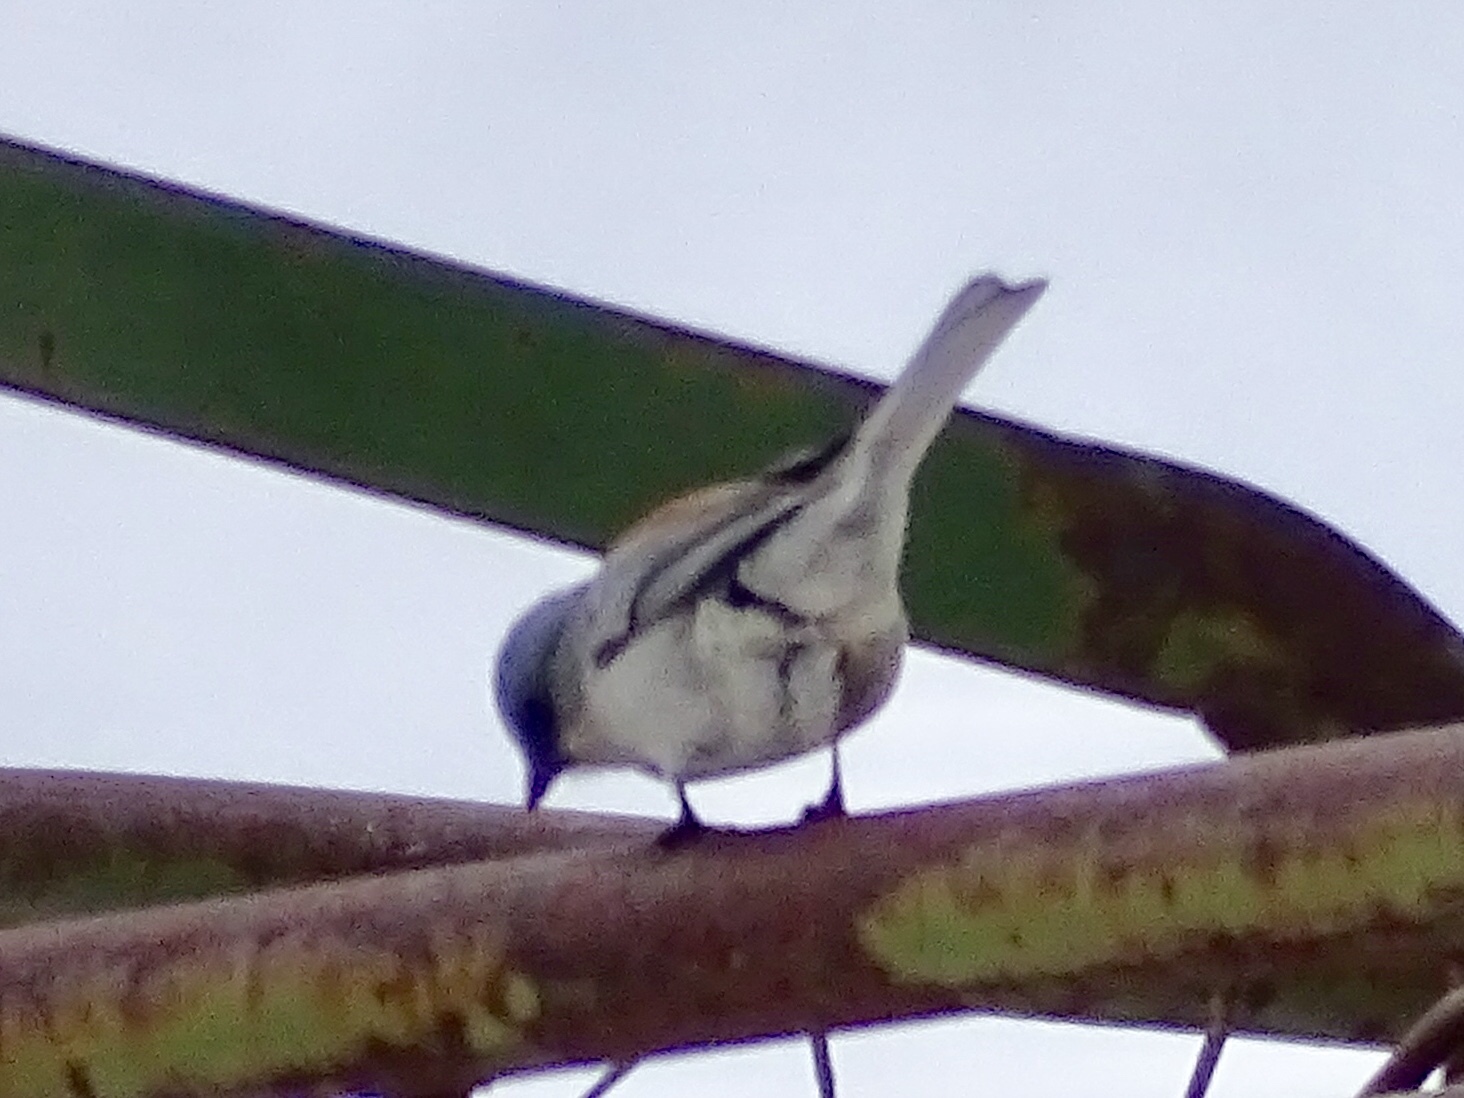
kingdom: Animalia
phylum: Chordata
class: Aves
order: Passeriformes
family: Passerellidae
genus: Junco
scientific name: Junco hyemalis
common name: Dark-eyed junco
